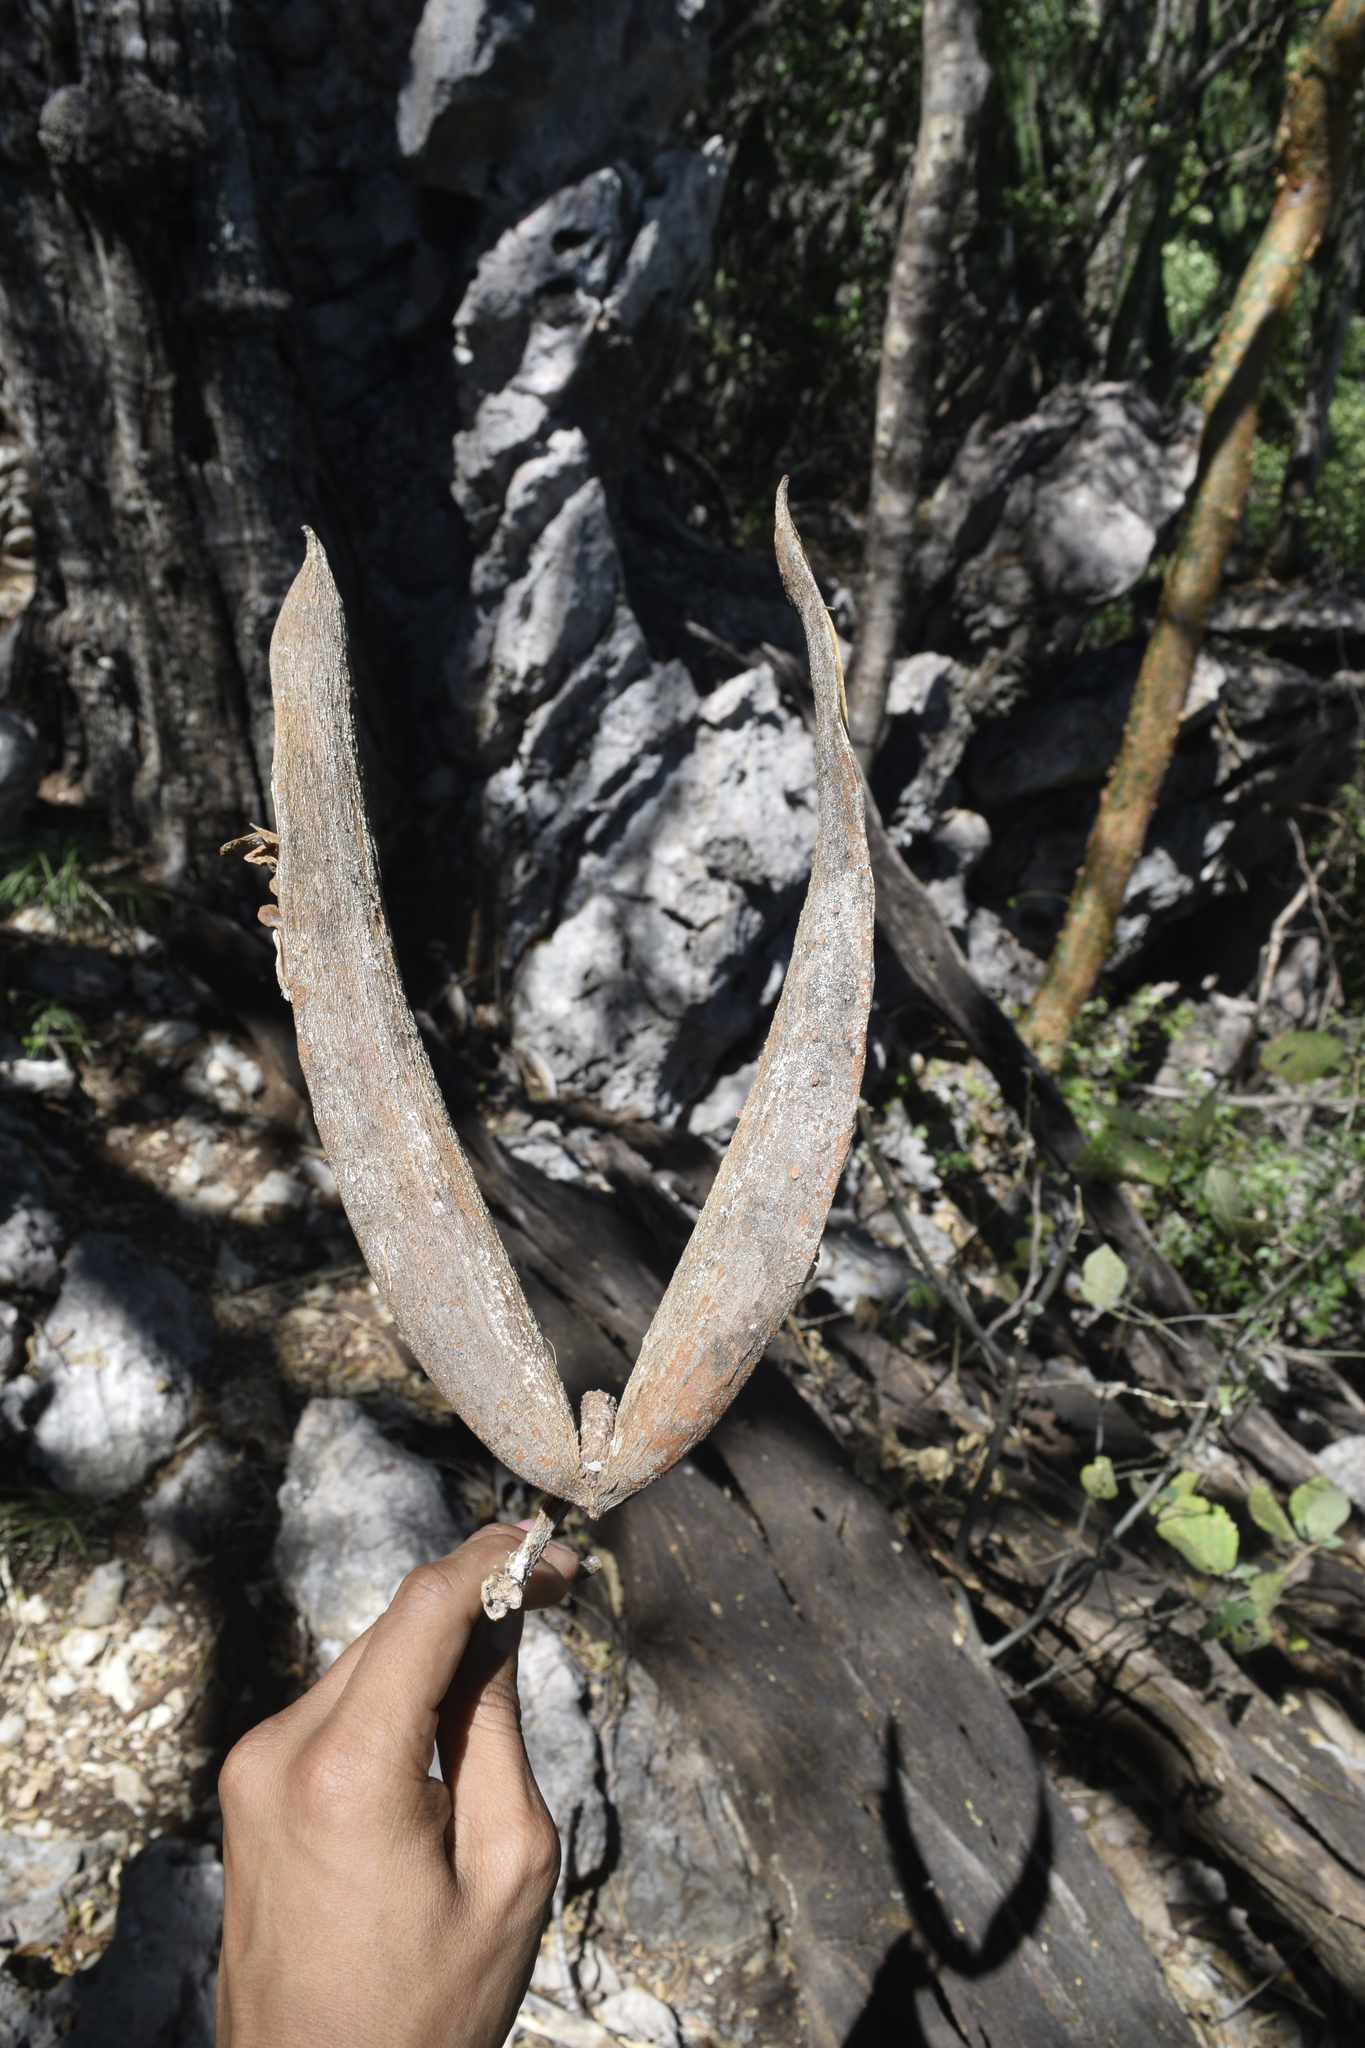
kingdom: Plantae
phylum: Tracheophyta
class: Magnoliopsida
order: Gentianales
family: Apocynaceae
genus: Plumeria
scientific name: Plumeria rubra
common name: Pagoda-tree
